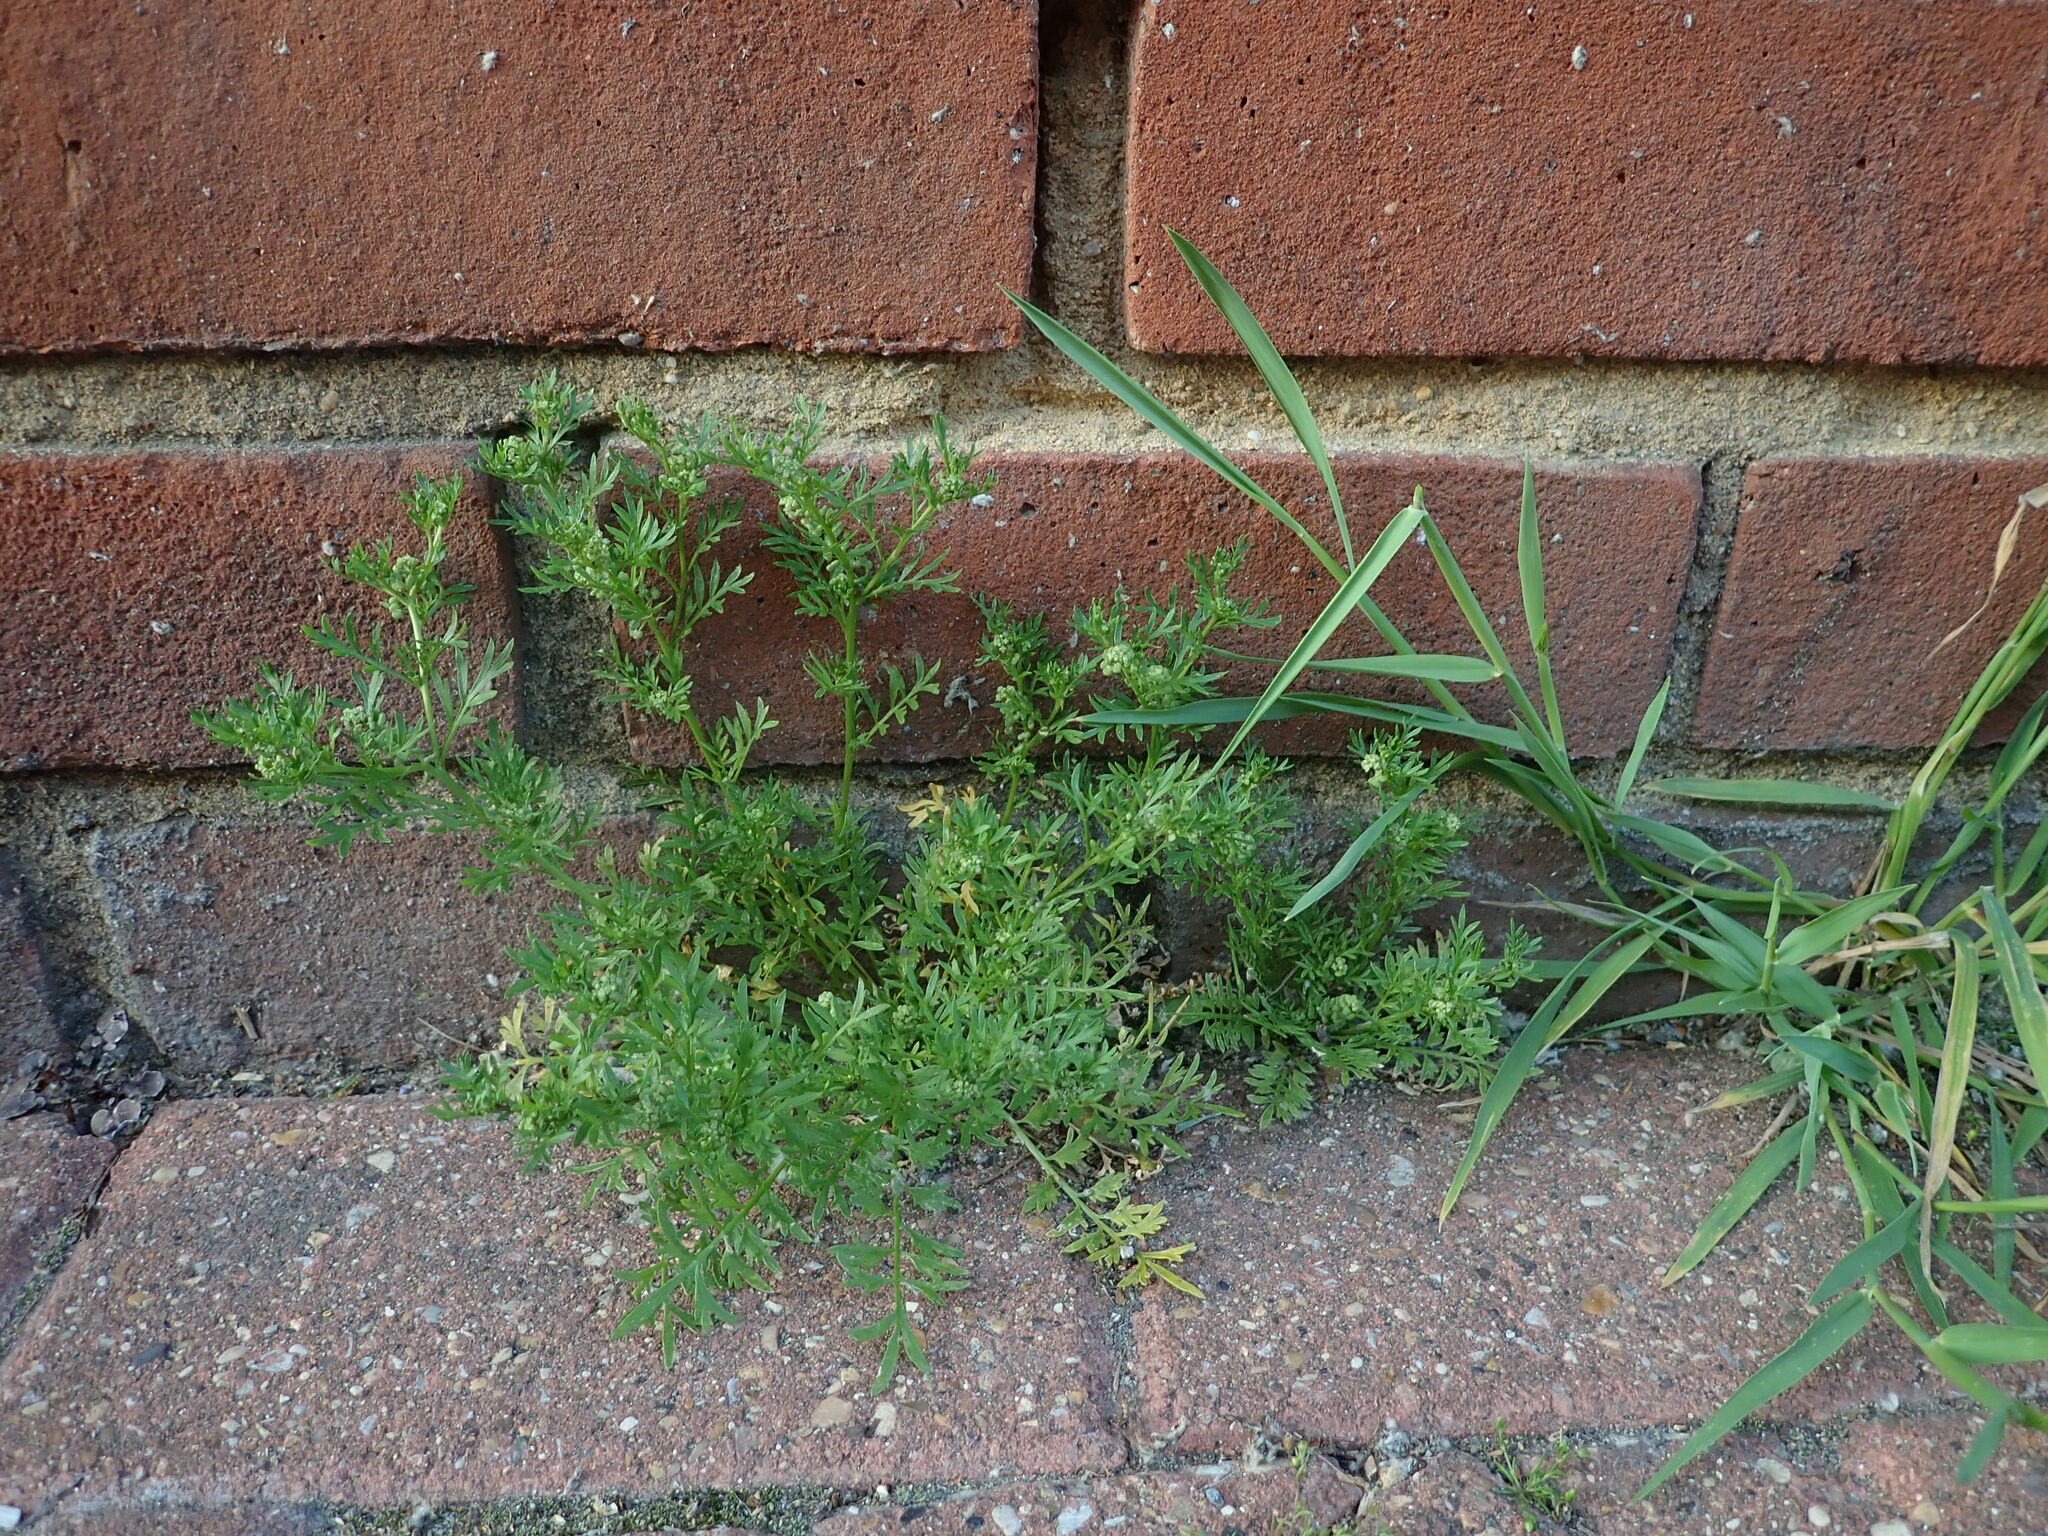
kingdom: Plantae
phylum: Tracheophyta
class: Magnoliopsida
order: Brassicales
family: Brassicaceae
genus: Lepidium
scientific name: Lepidium didymum
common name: Lesser swinecress
